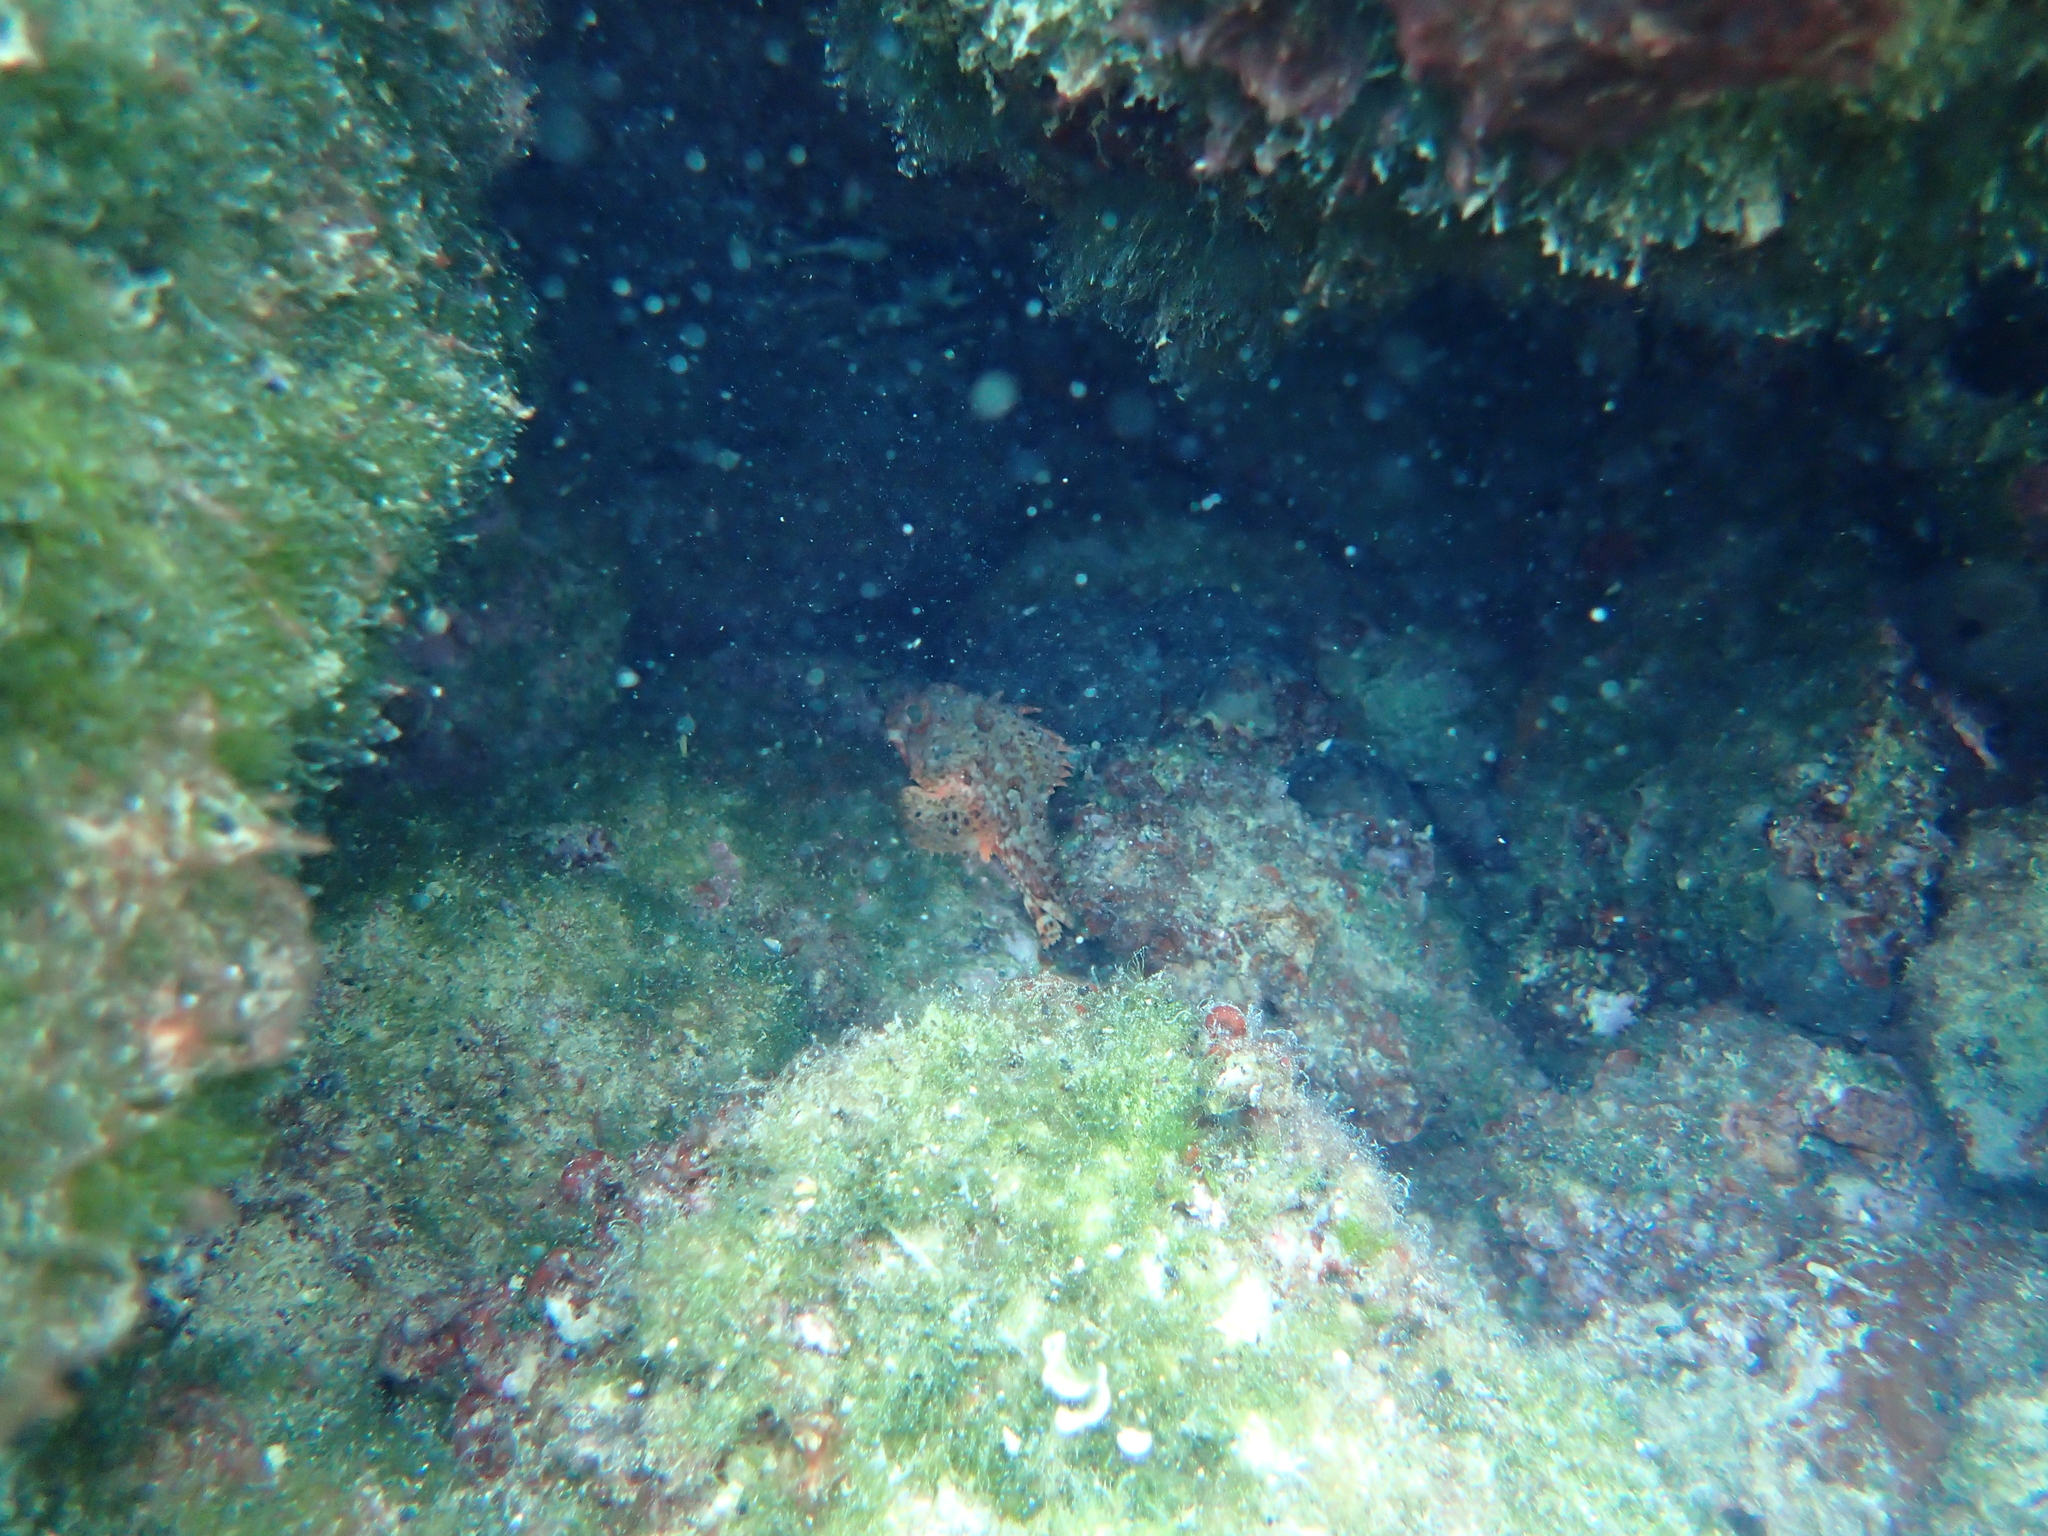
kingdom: Animalia
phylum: Chordata
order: Scorpaeniformes
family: Scorpaenidae
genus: Scorpaena
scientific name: Scorpaena notata
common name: Small red scorpionfish
